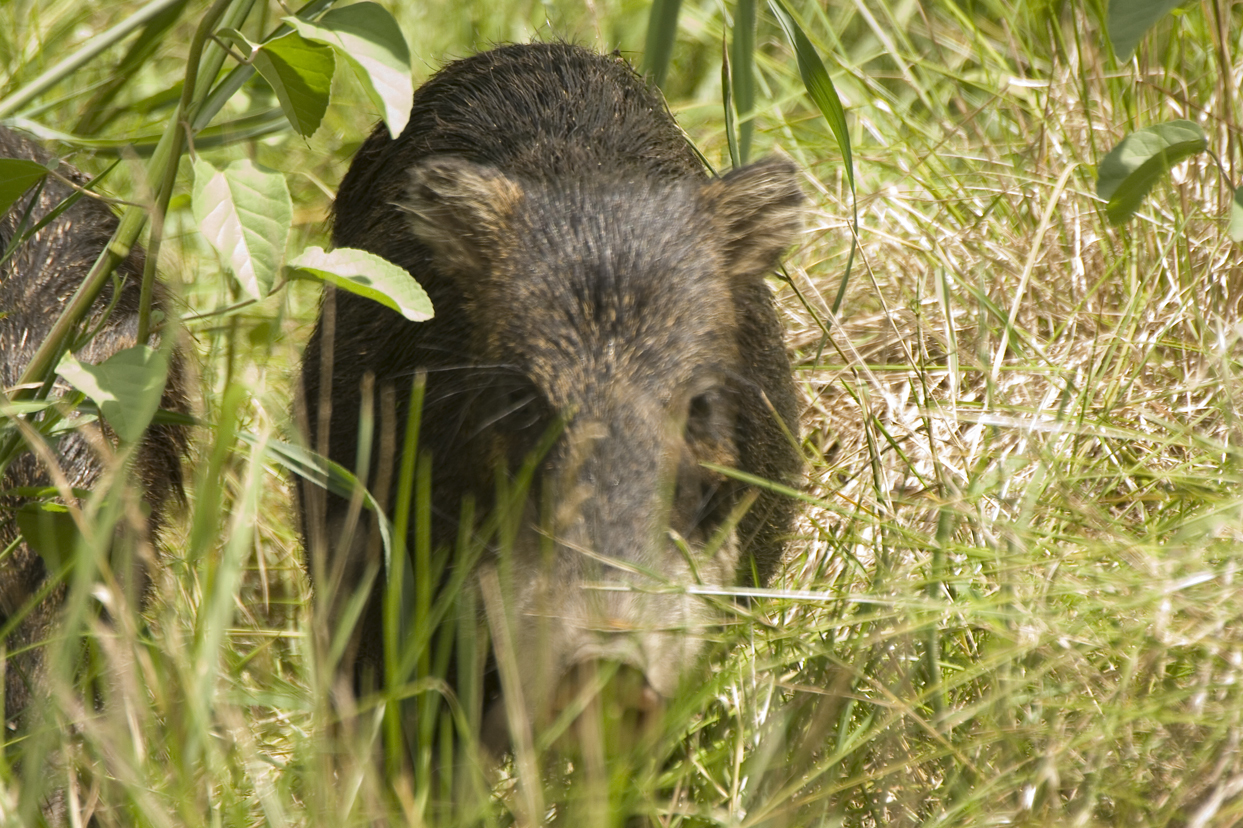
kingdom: Animalia
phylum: Chordata
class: Mammalia
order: Artiodactyla
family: Tayassuidae
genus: Tayassu
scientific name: Tayassu pecari
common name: White-lipped peccary
